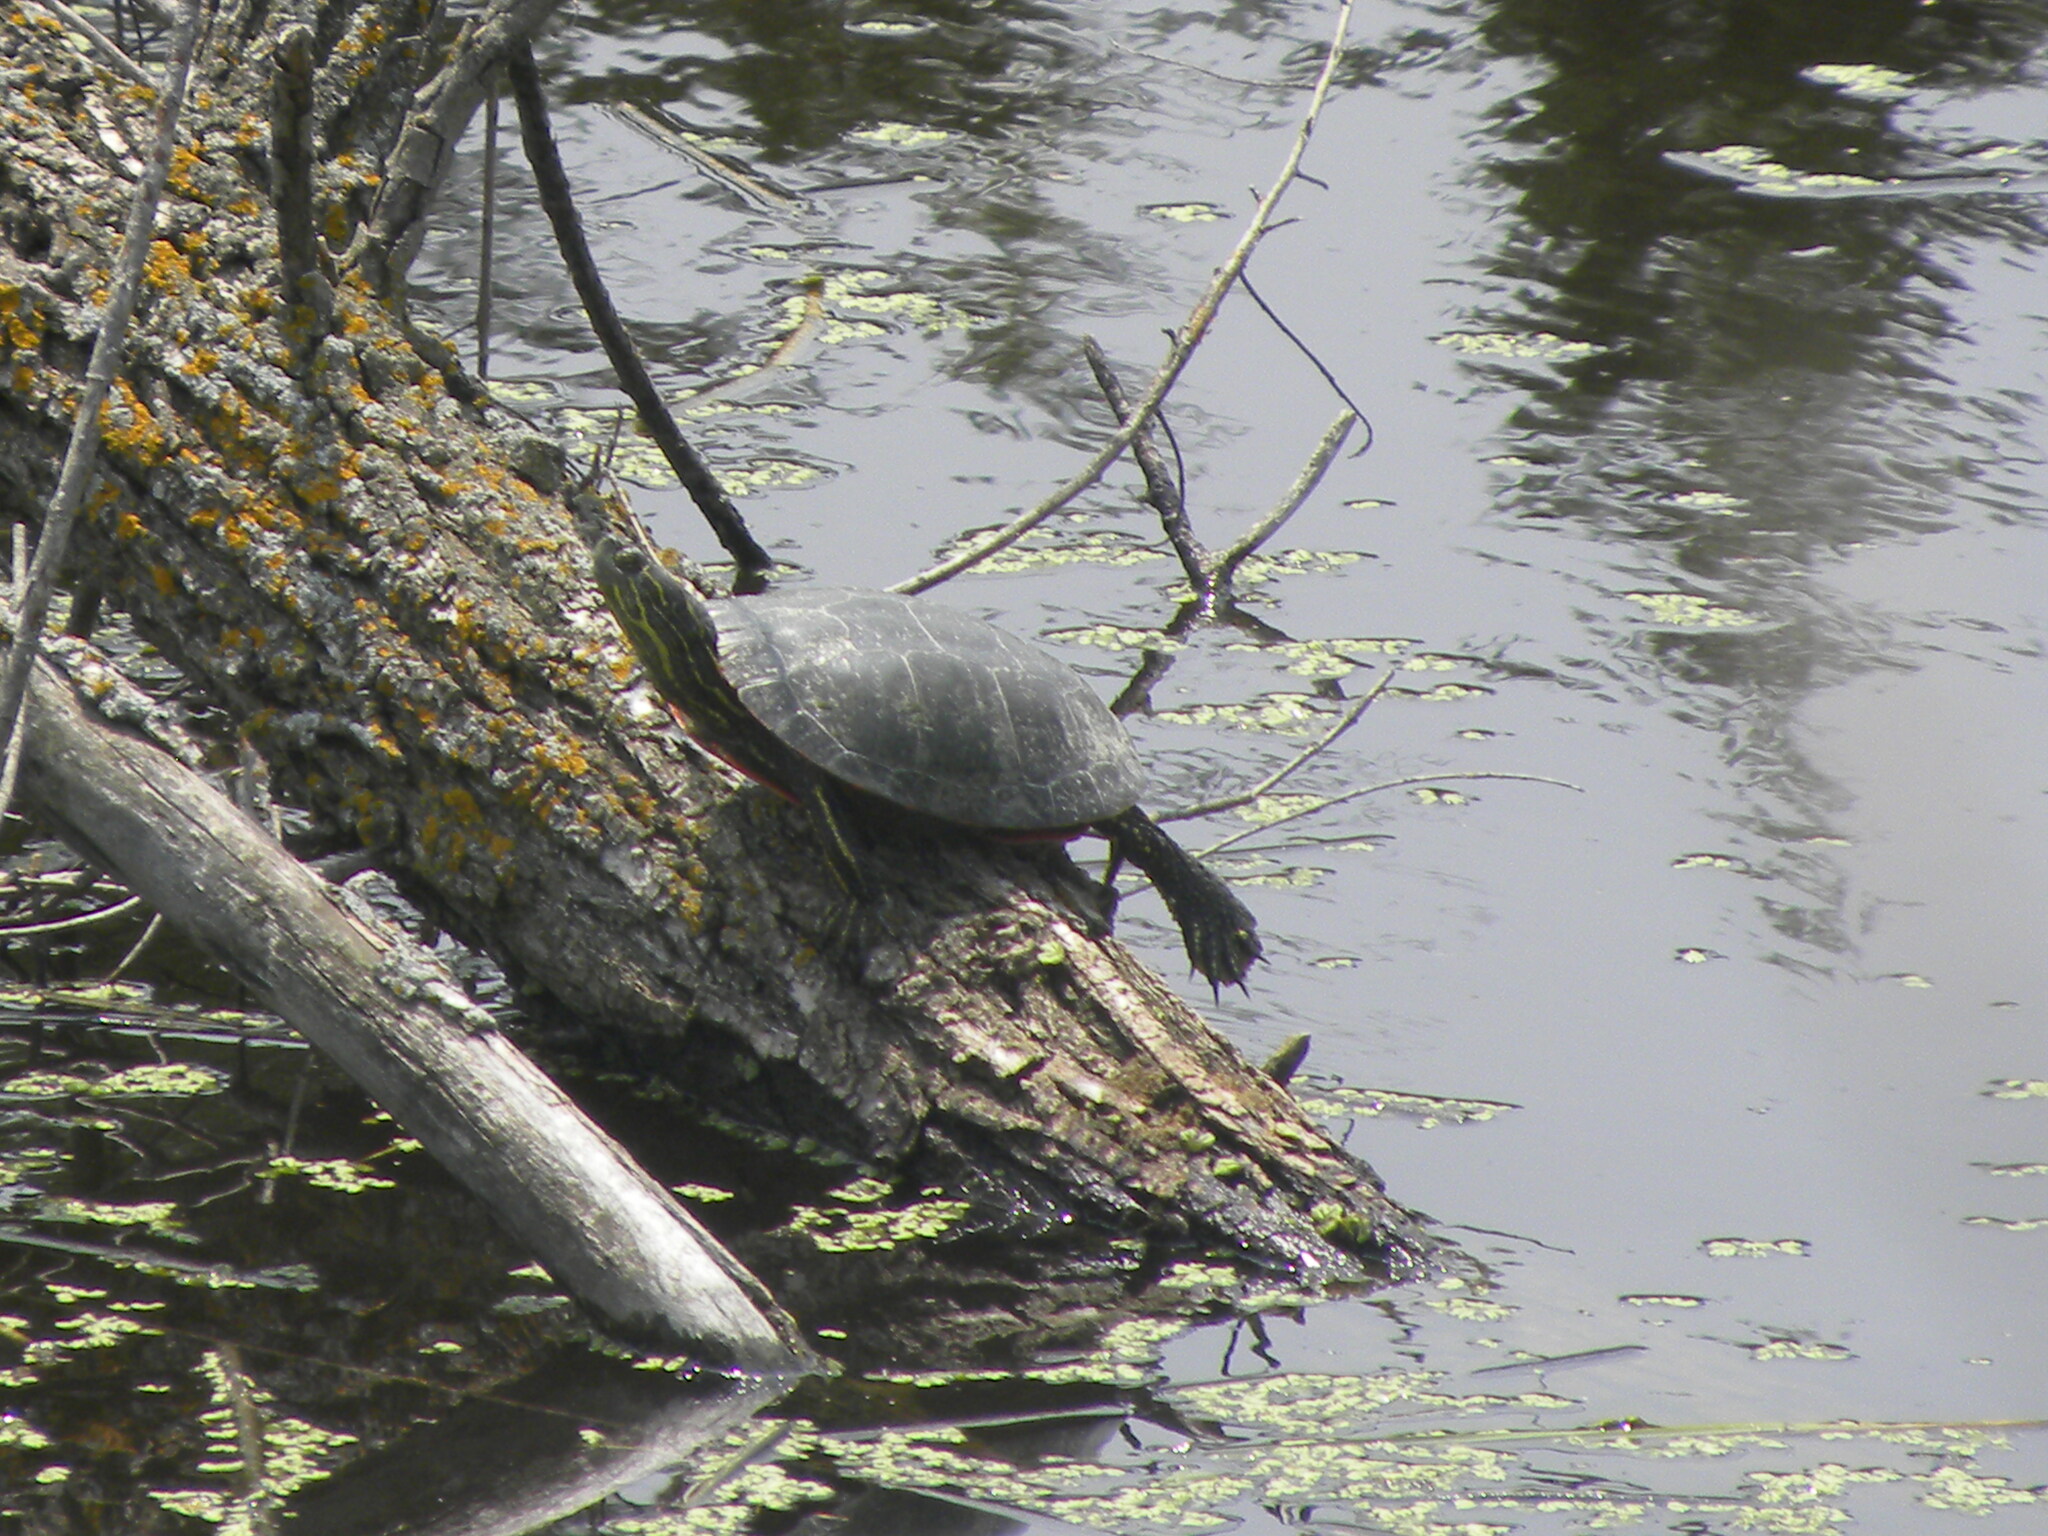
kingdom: Animalia
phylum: Chordata
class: Testudines
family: Emydidae
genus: Chrysemys
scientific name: Chrysemys picta
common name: Painted turtle
